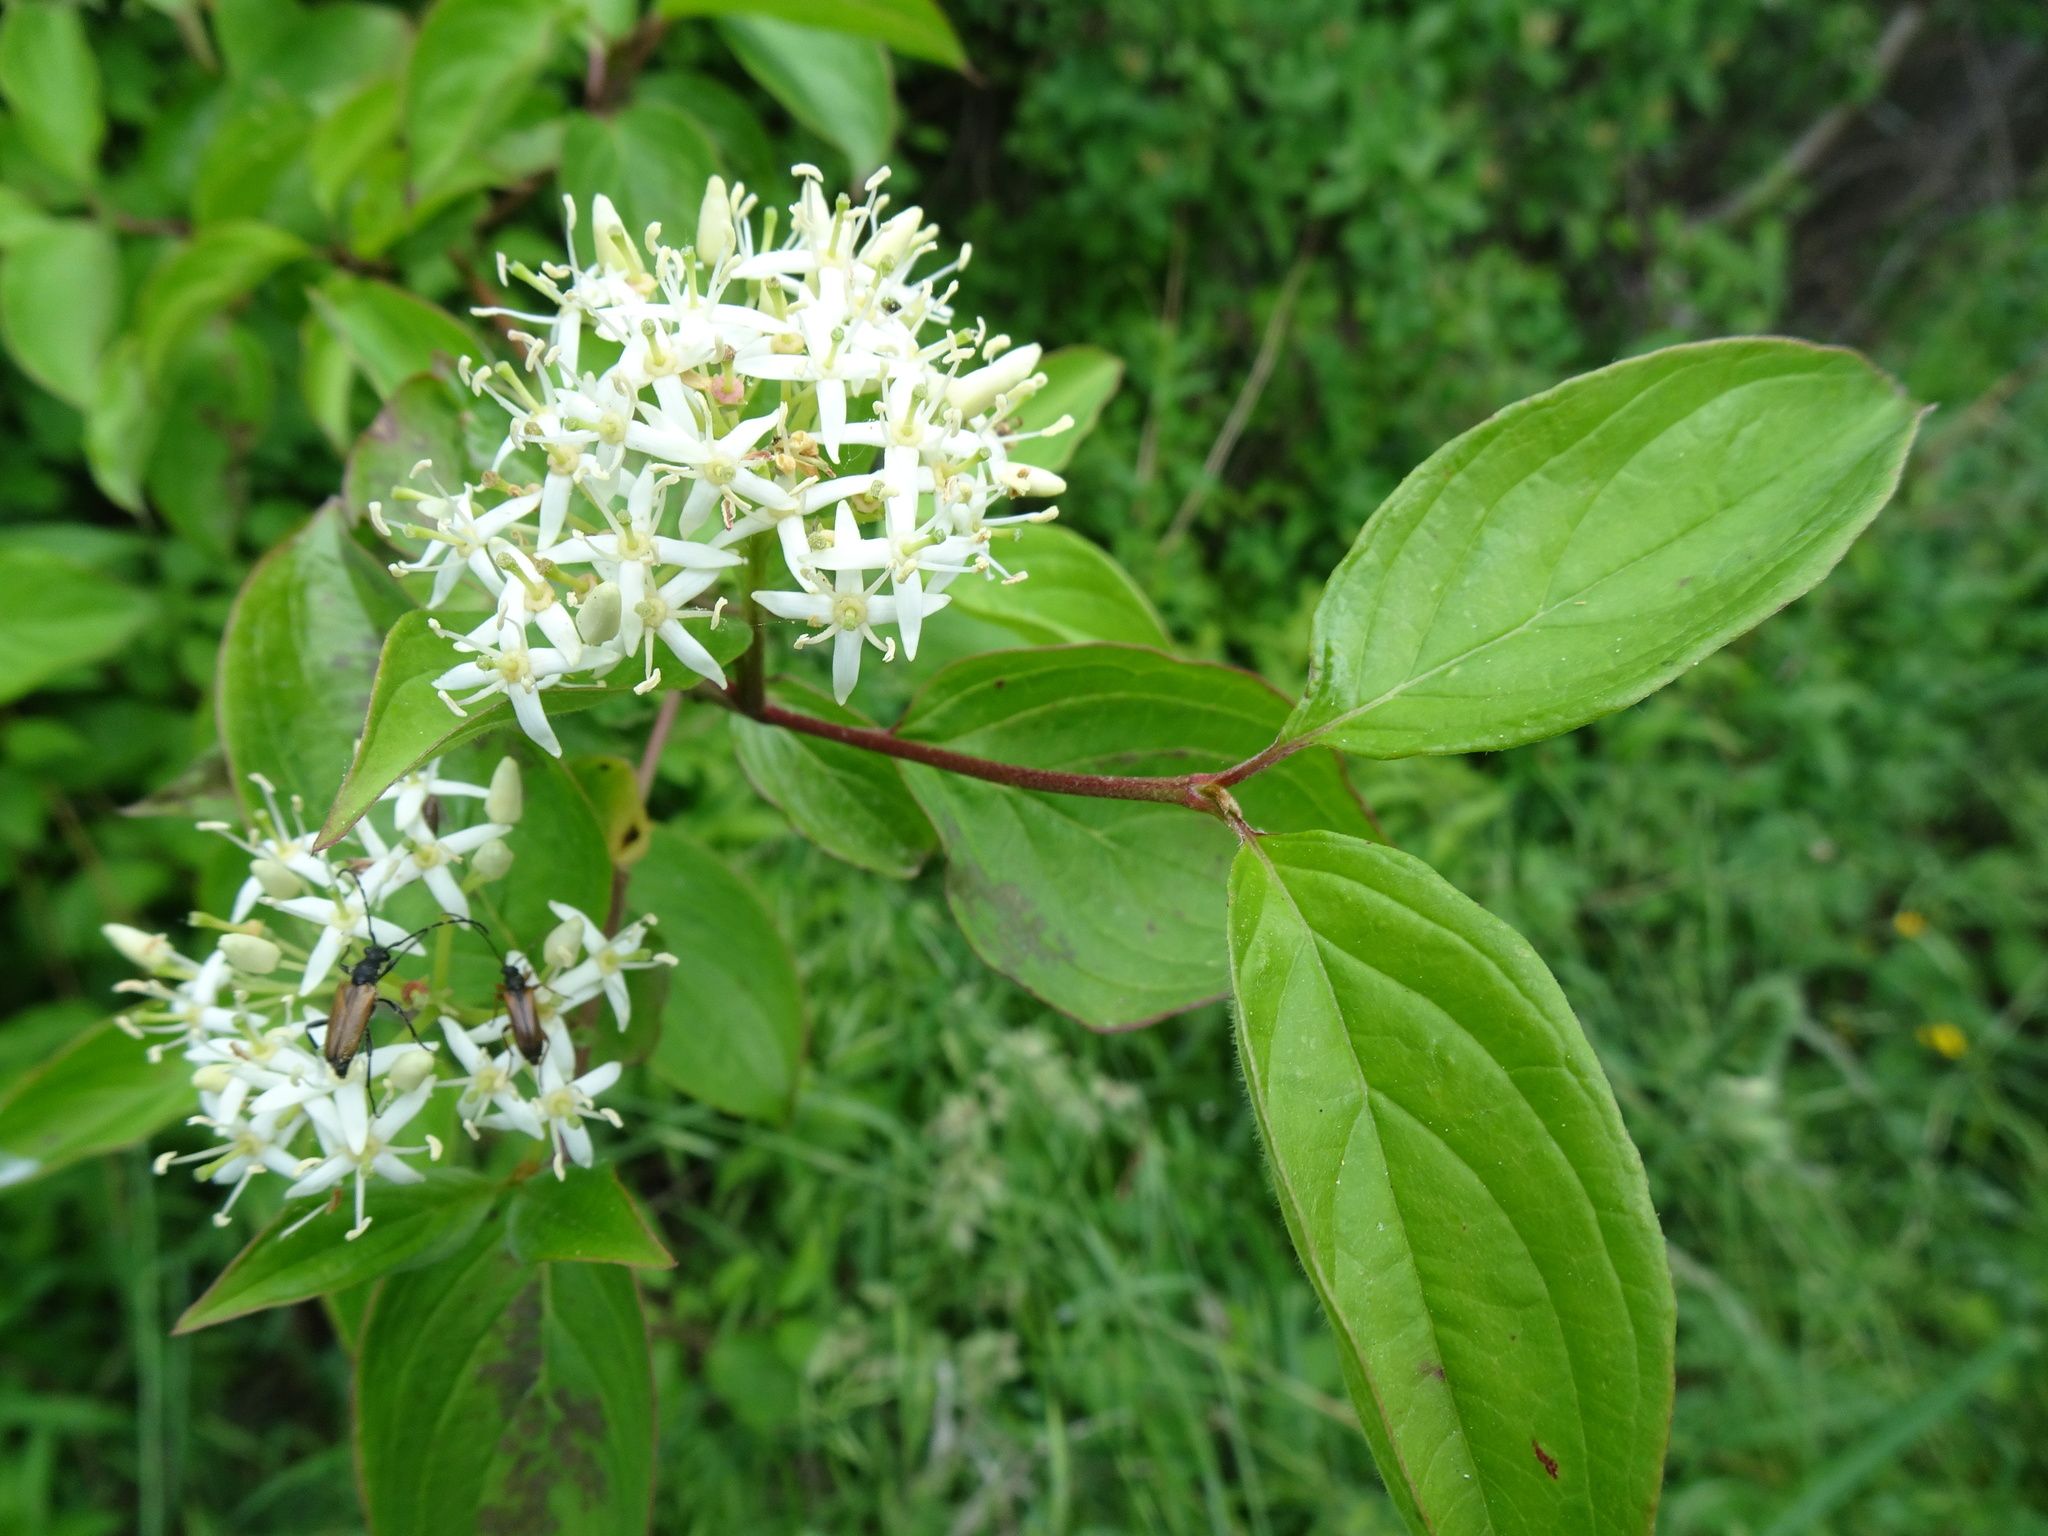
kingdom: Plantae
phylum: Tracheophyta
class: Magnoliopsida
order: Cornales
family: Cornaceae
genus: Cornus
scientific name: Cornus sanguinea
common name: Dogwood
